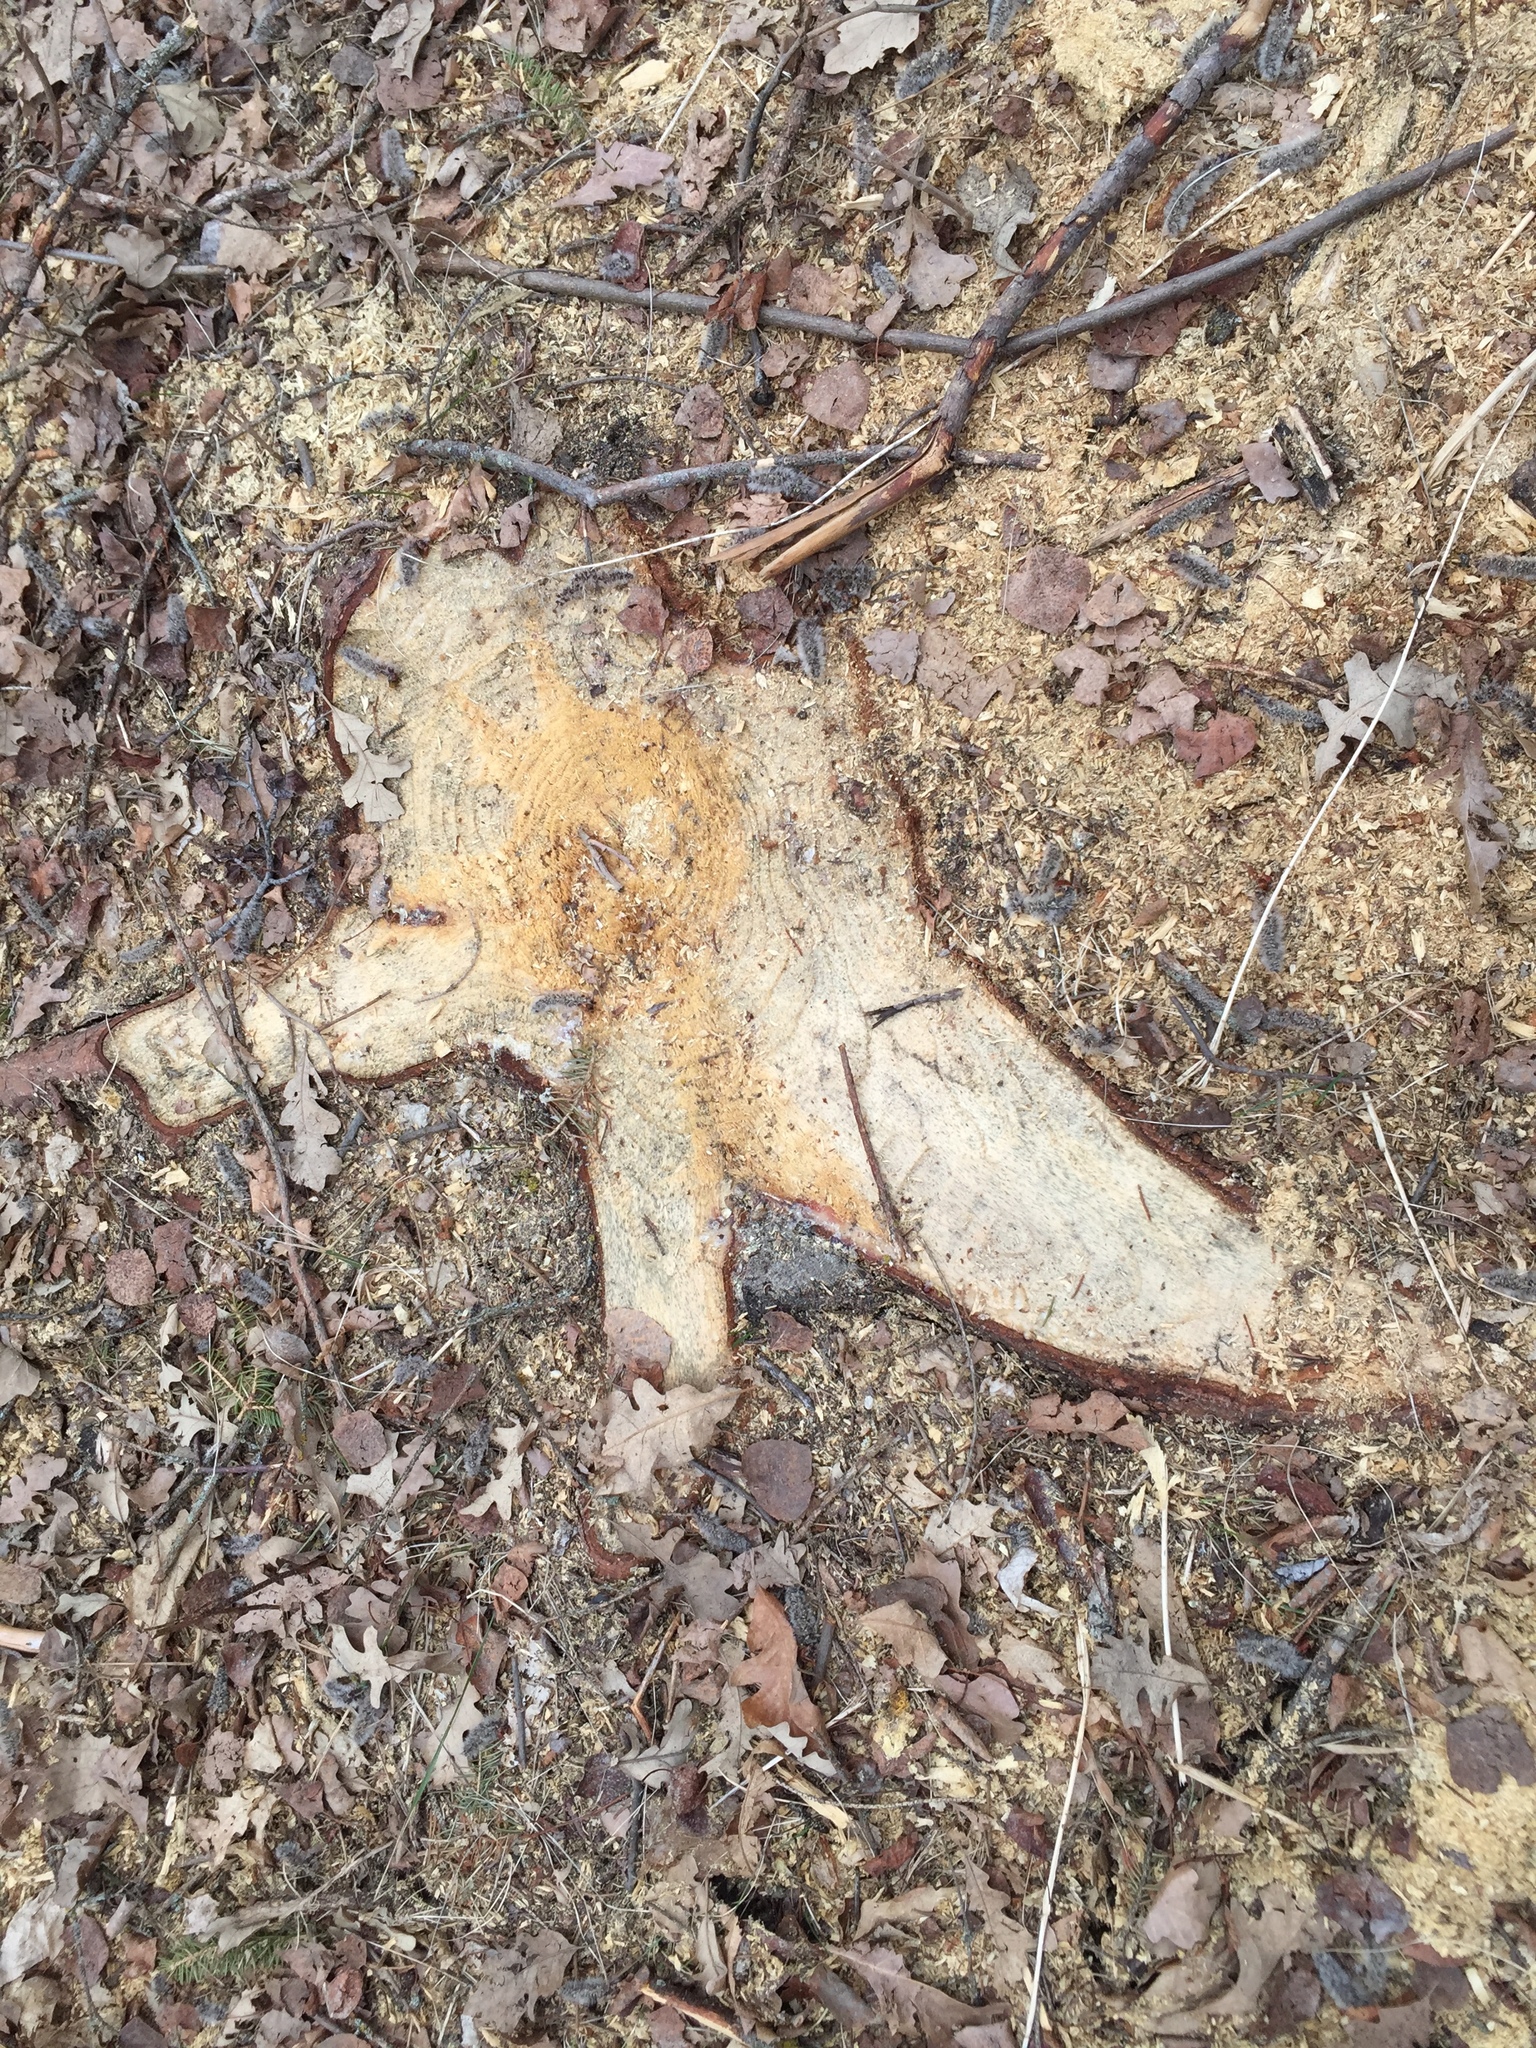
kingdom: Plantae
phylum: Tracheophyta
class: Pinopsida
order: Pinales
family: Pinaceae
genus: Picea
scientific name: Picea glauca
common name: White spruce
